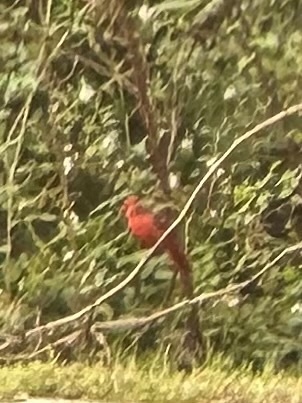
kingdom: Animalia
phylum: Chordata
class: Aves
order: Passeriformes
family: Cardinalidae
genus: Cardinalis
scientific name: Cardinalis cardinalis
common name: Northern cardinal
